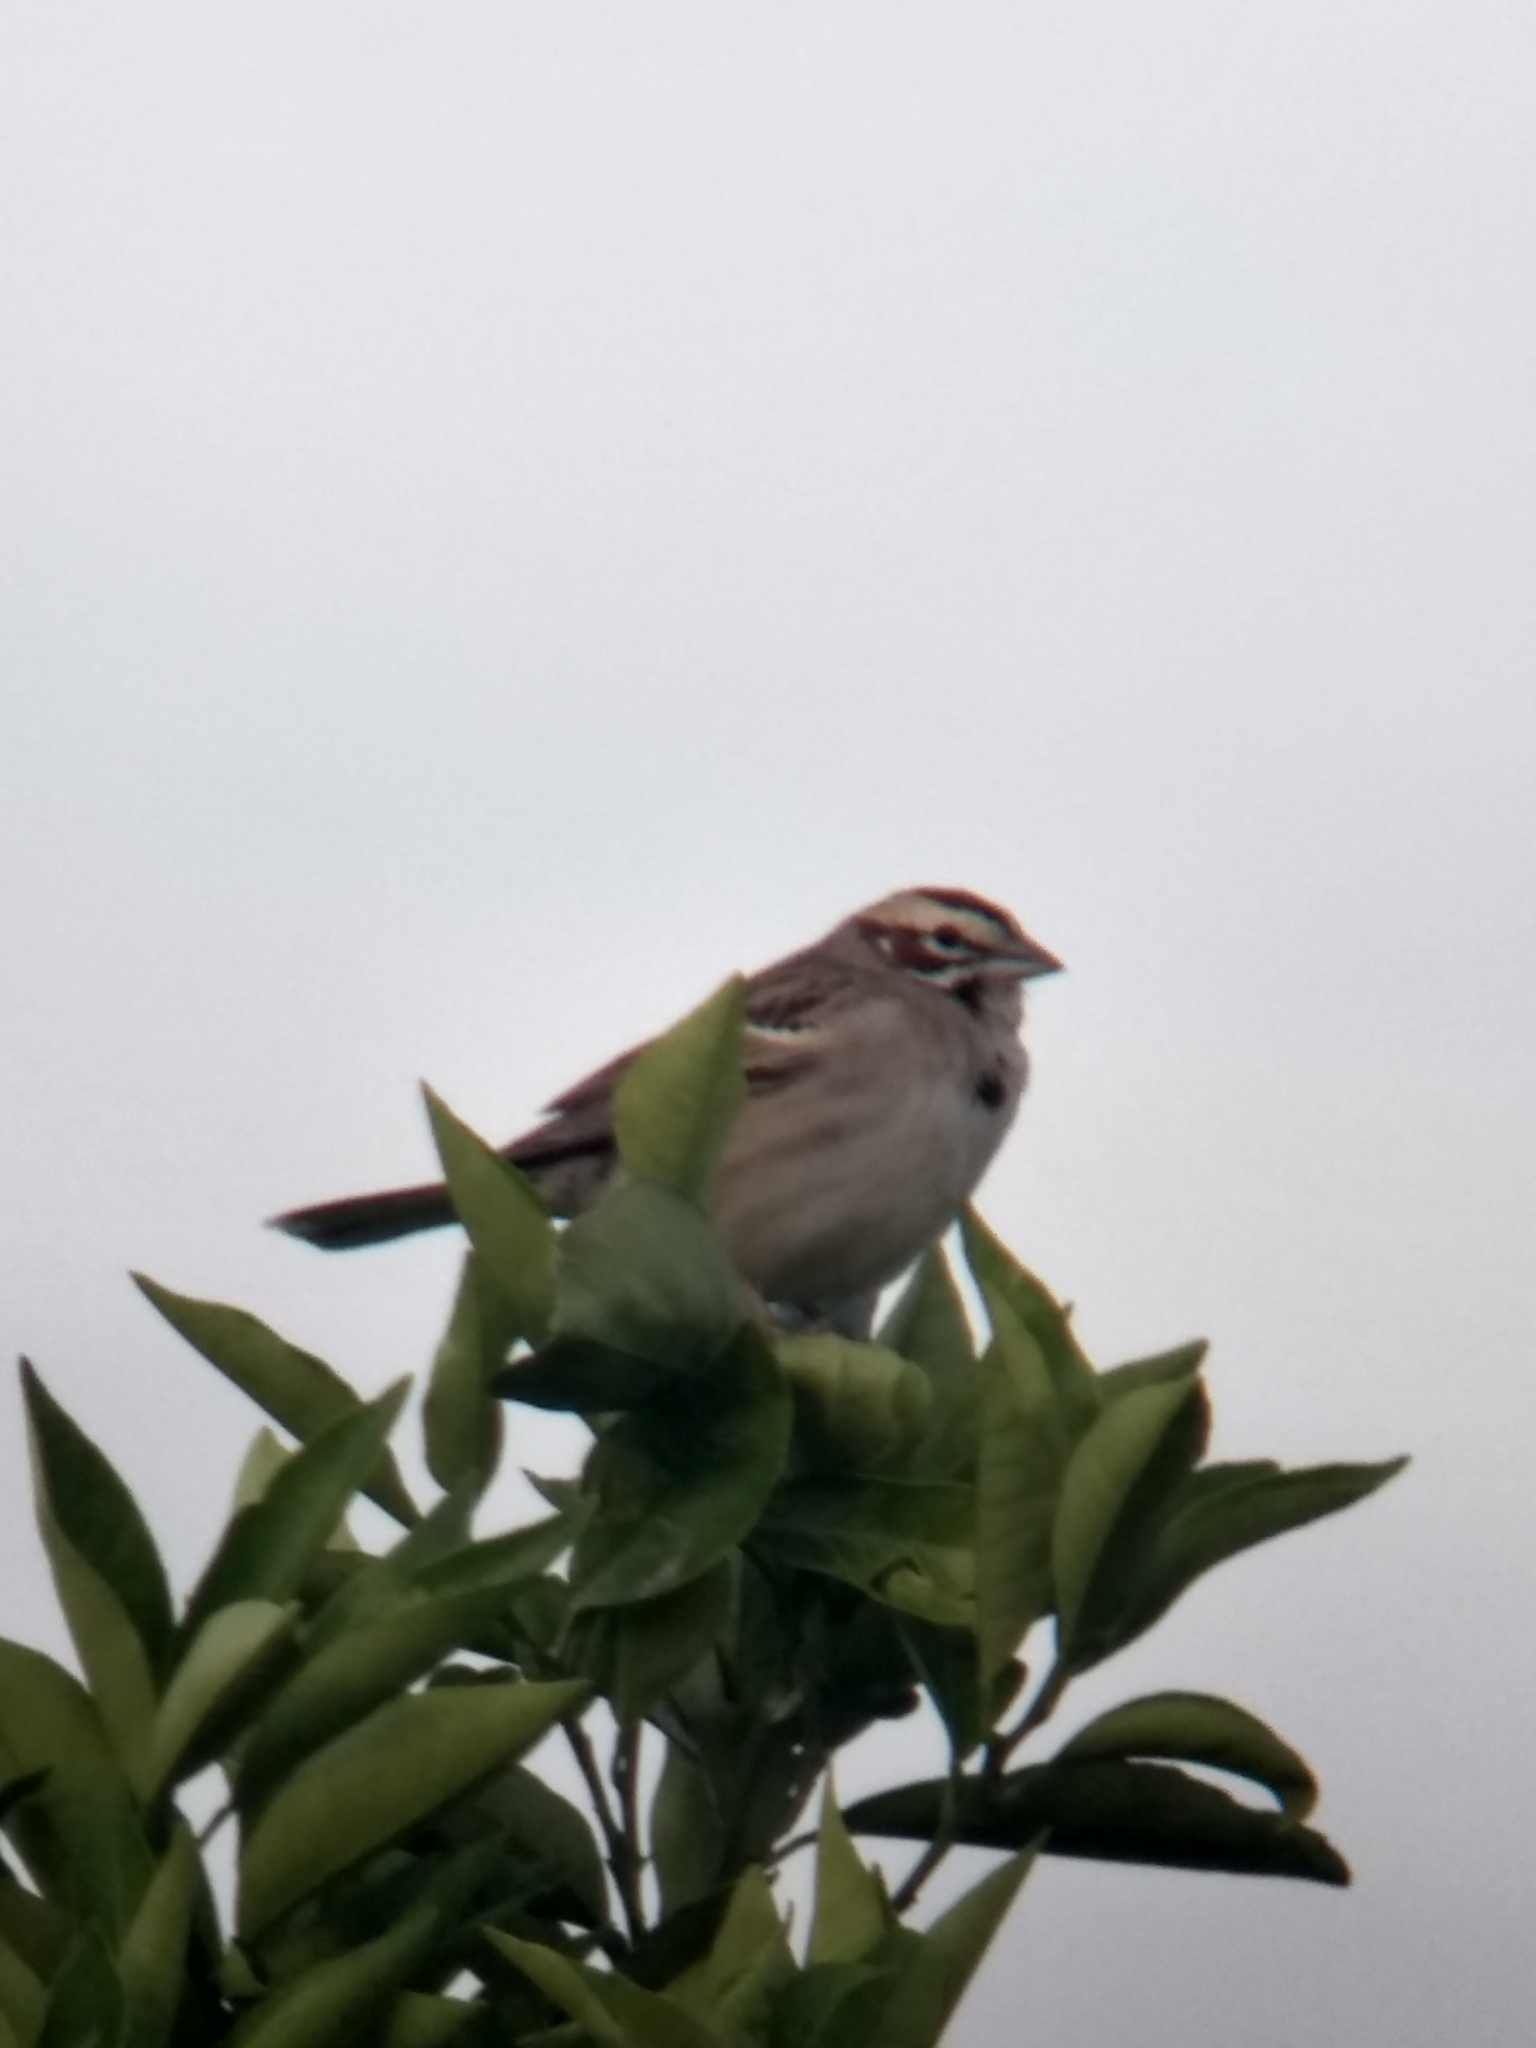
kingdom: Animalia
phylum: Chordata
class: Aves
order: Passeriformes
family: Passerellidae
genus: Chondestes
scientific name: Chondestes grammacus
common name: Lark sparrow
